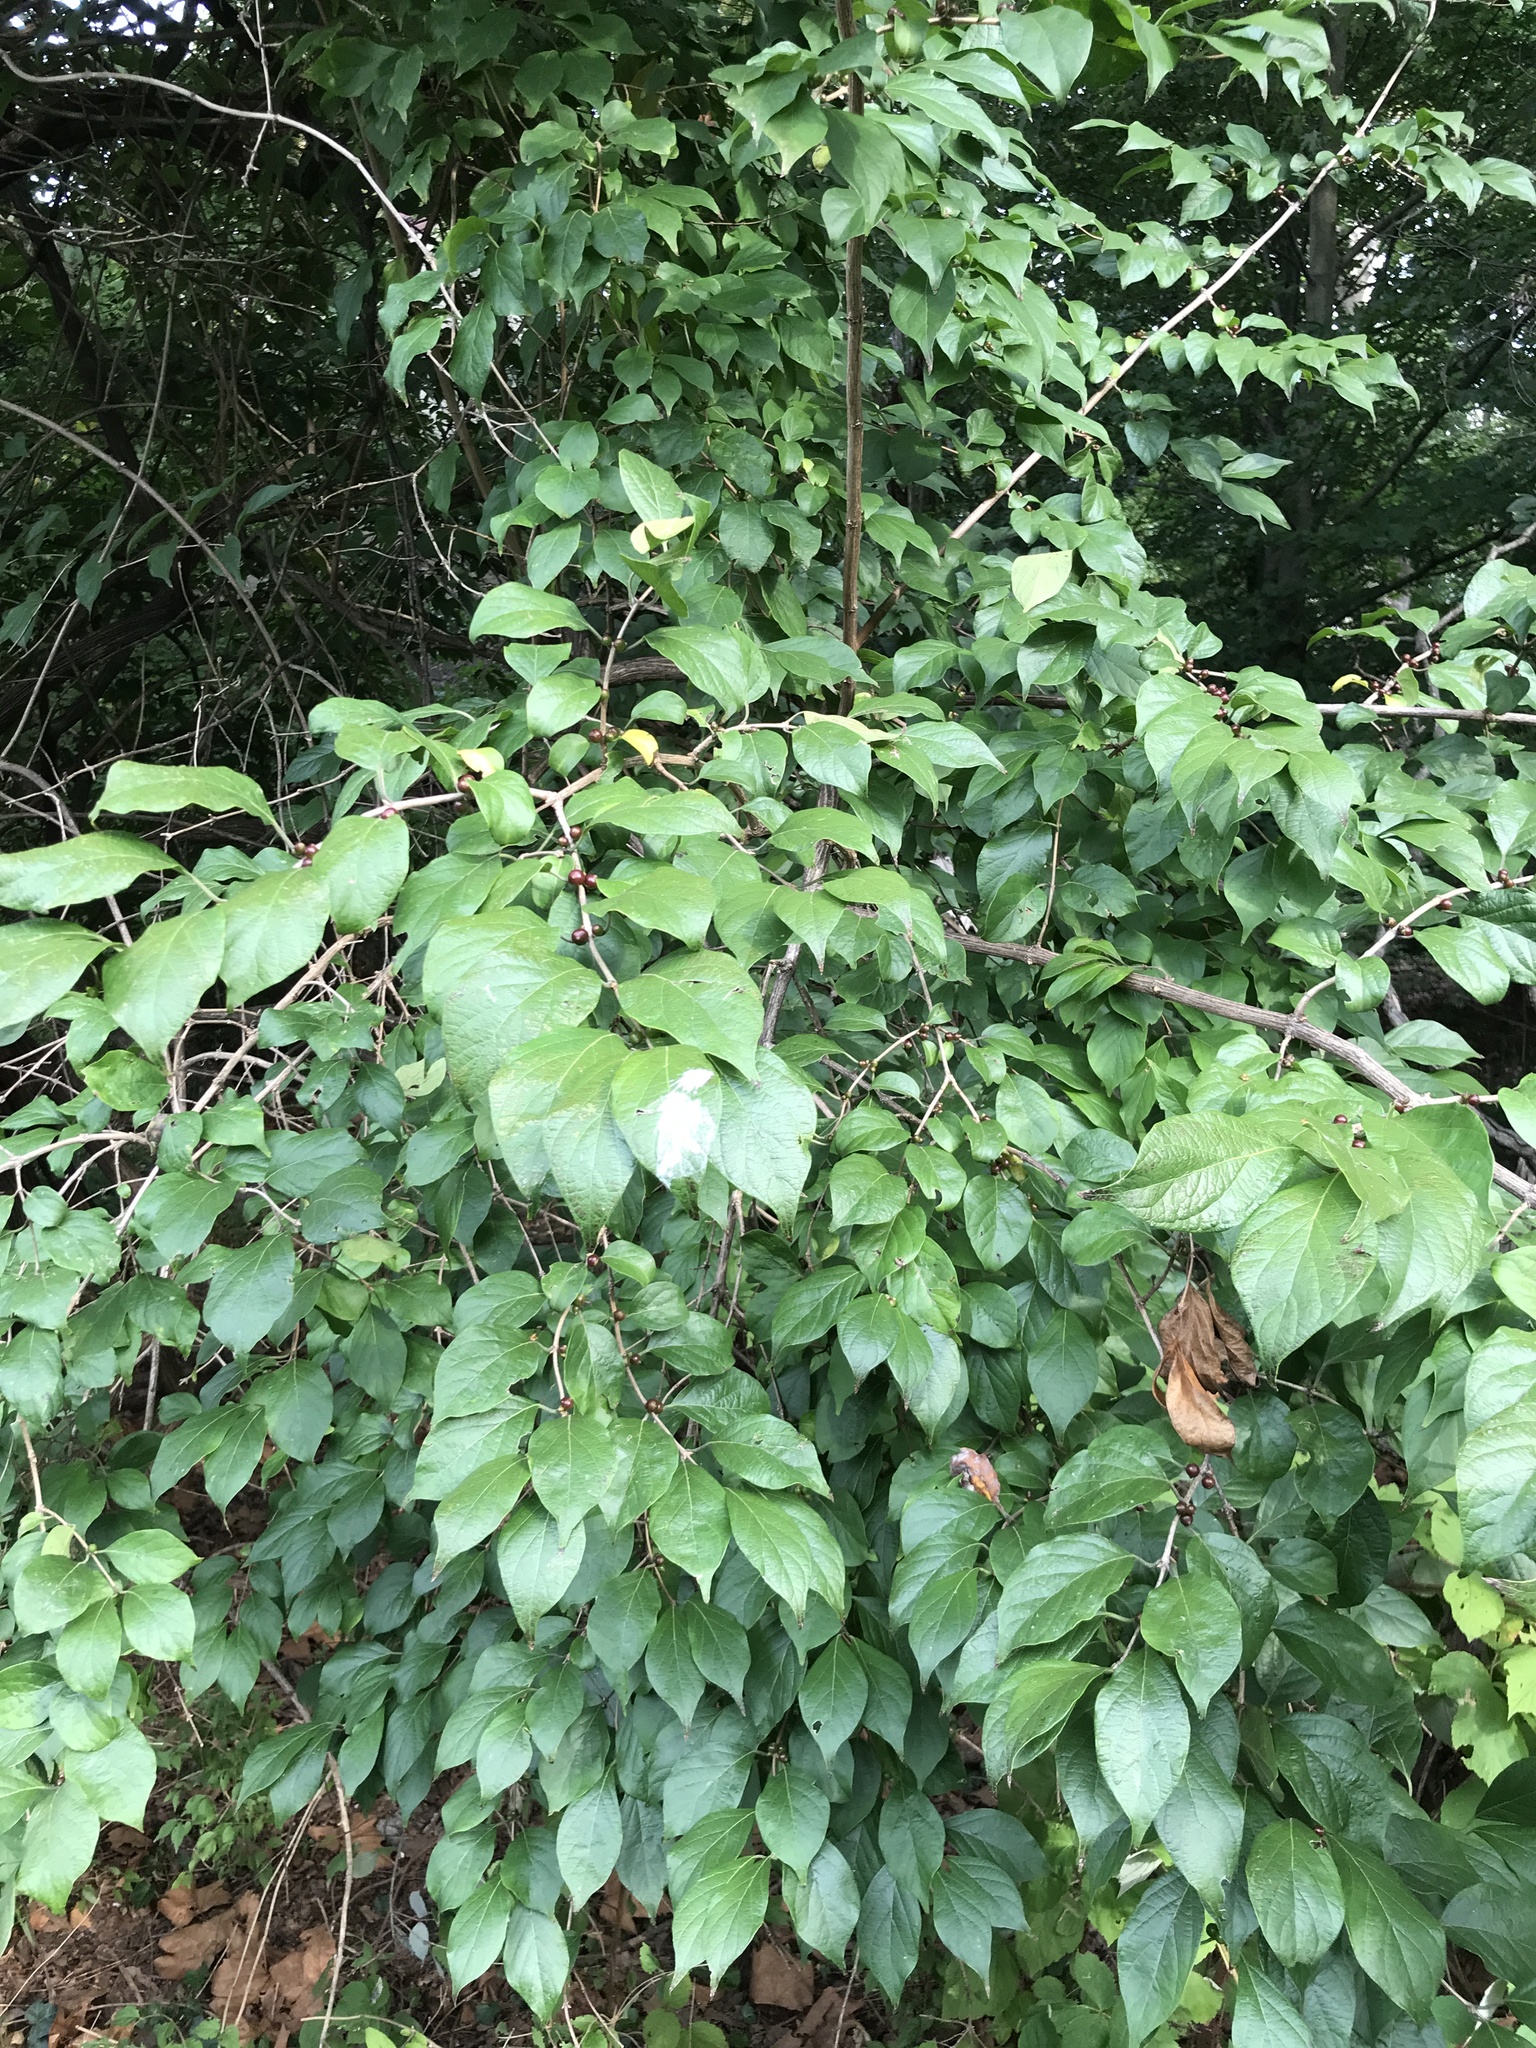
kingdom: Plantae
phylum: Tracheophyta
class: Magnoliopsida
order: Dipsacales
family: Caprifoliaceae
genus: Lonicera
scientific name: Lonicera maackii
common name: Amur honeysuckle
